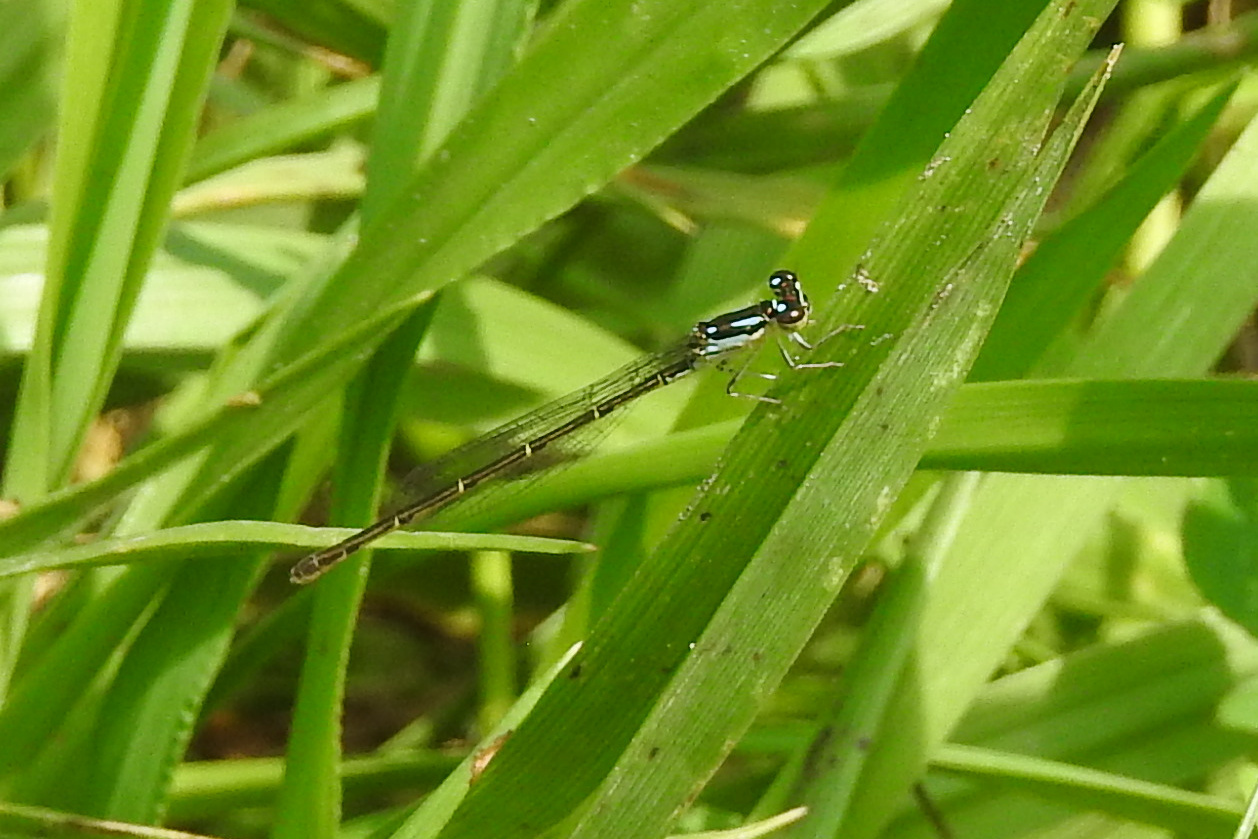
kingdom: Animalia
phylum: Arthropoda
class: Insecta
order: Odonata
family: Coenagrionidae
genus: Ischnura
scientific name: Ischnura posita
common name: Fragile forktail
